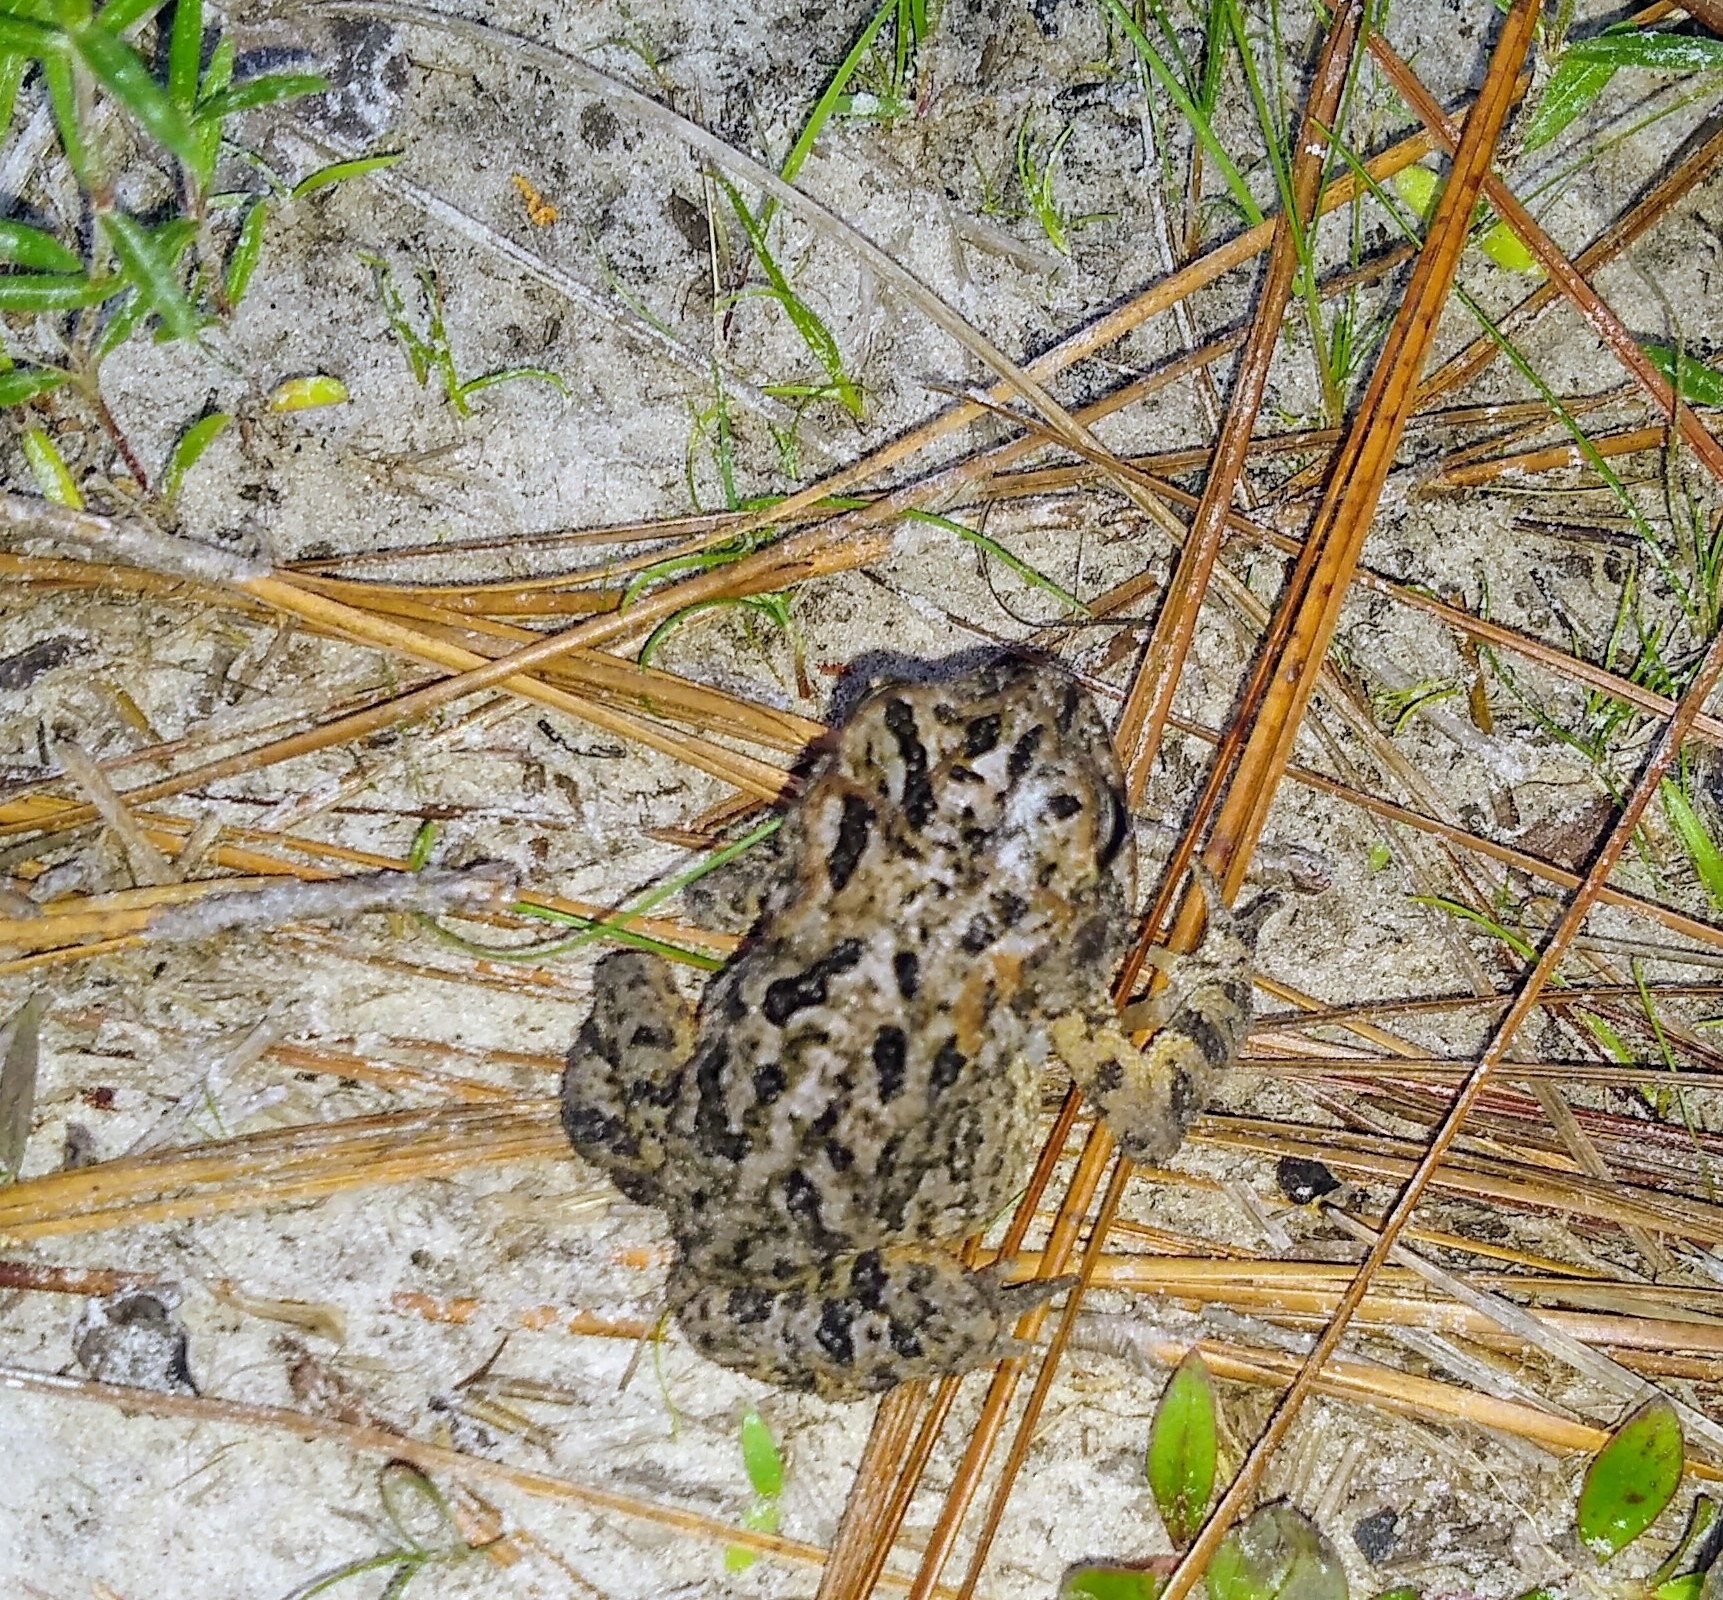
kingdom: Animalia
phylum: Chordata
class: Amphibia
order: Anura
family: Bufonidae
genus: Anaxyrus
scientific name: Anaxyrus terrestris
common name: Southern toad
